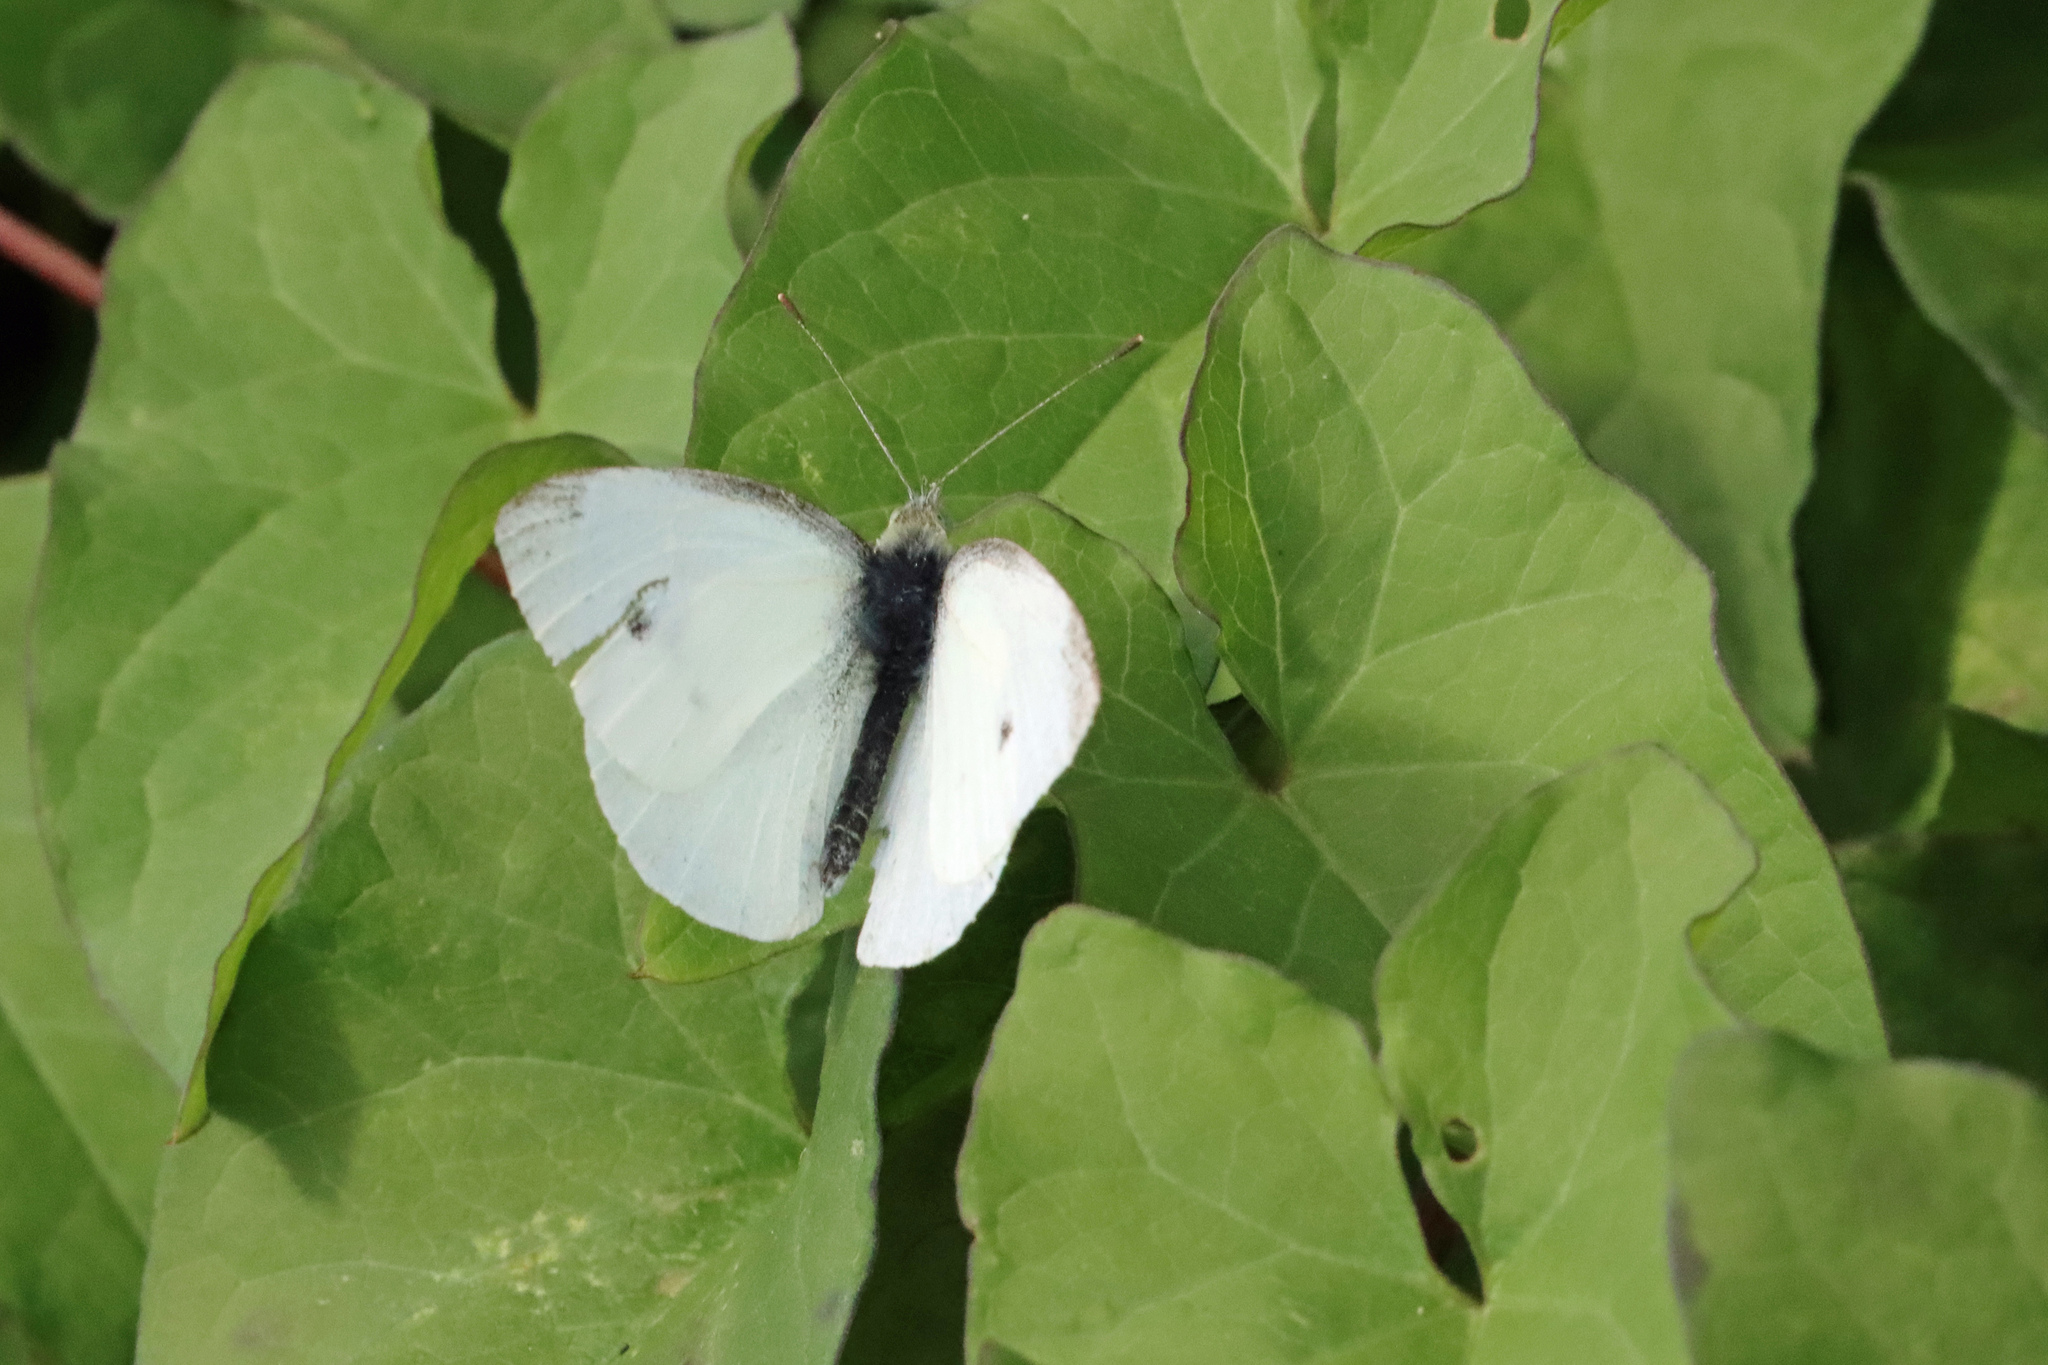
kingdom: Animalia
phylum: Arthropoda
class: Insecta
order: Lepidoptera
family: Pieridae
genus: Pieris
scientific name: Pieris rapae
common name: Small white
